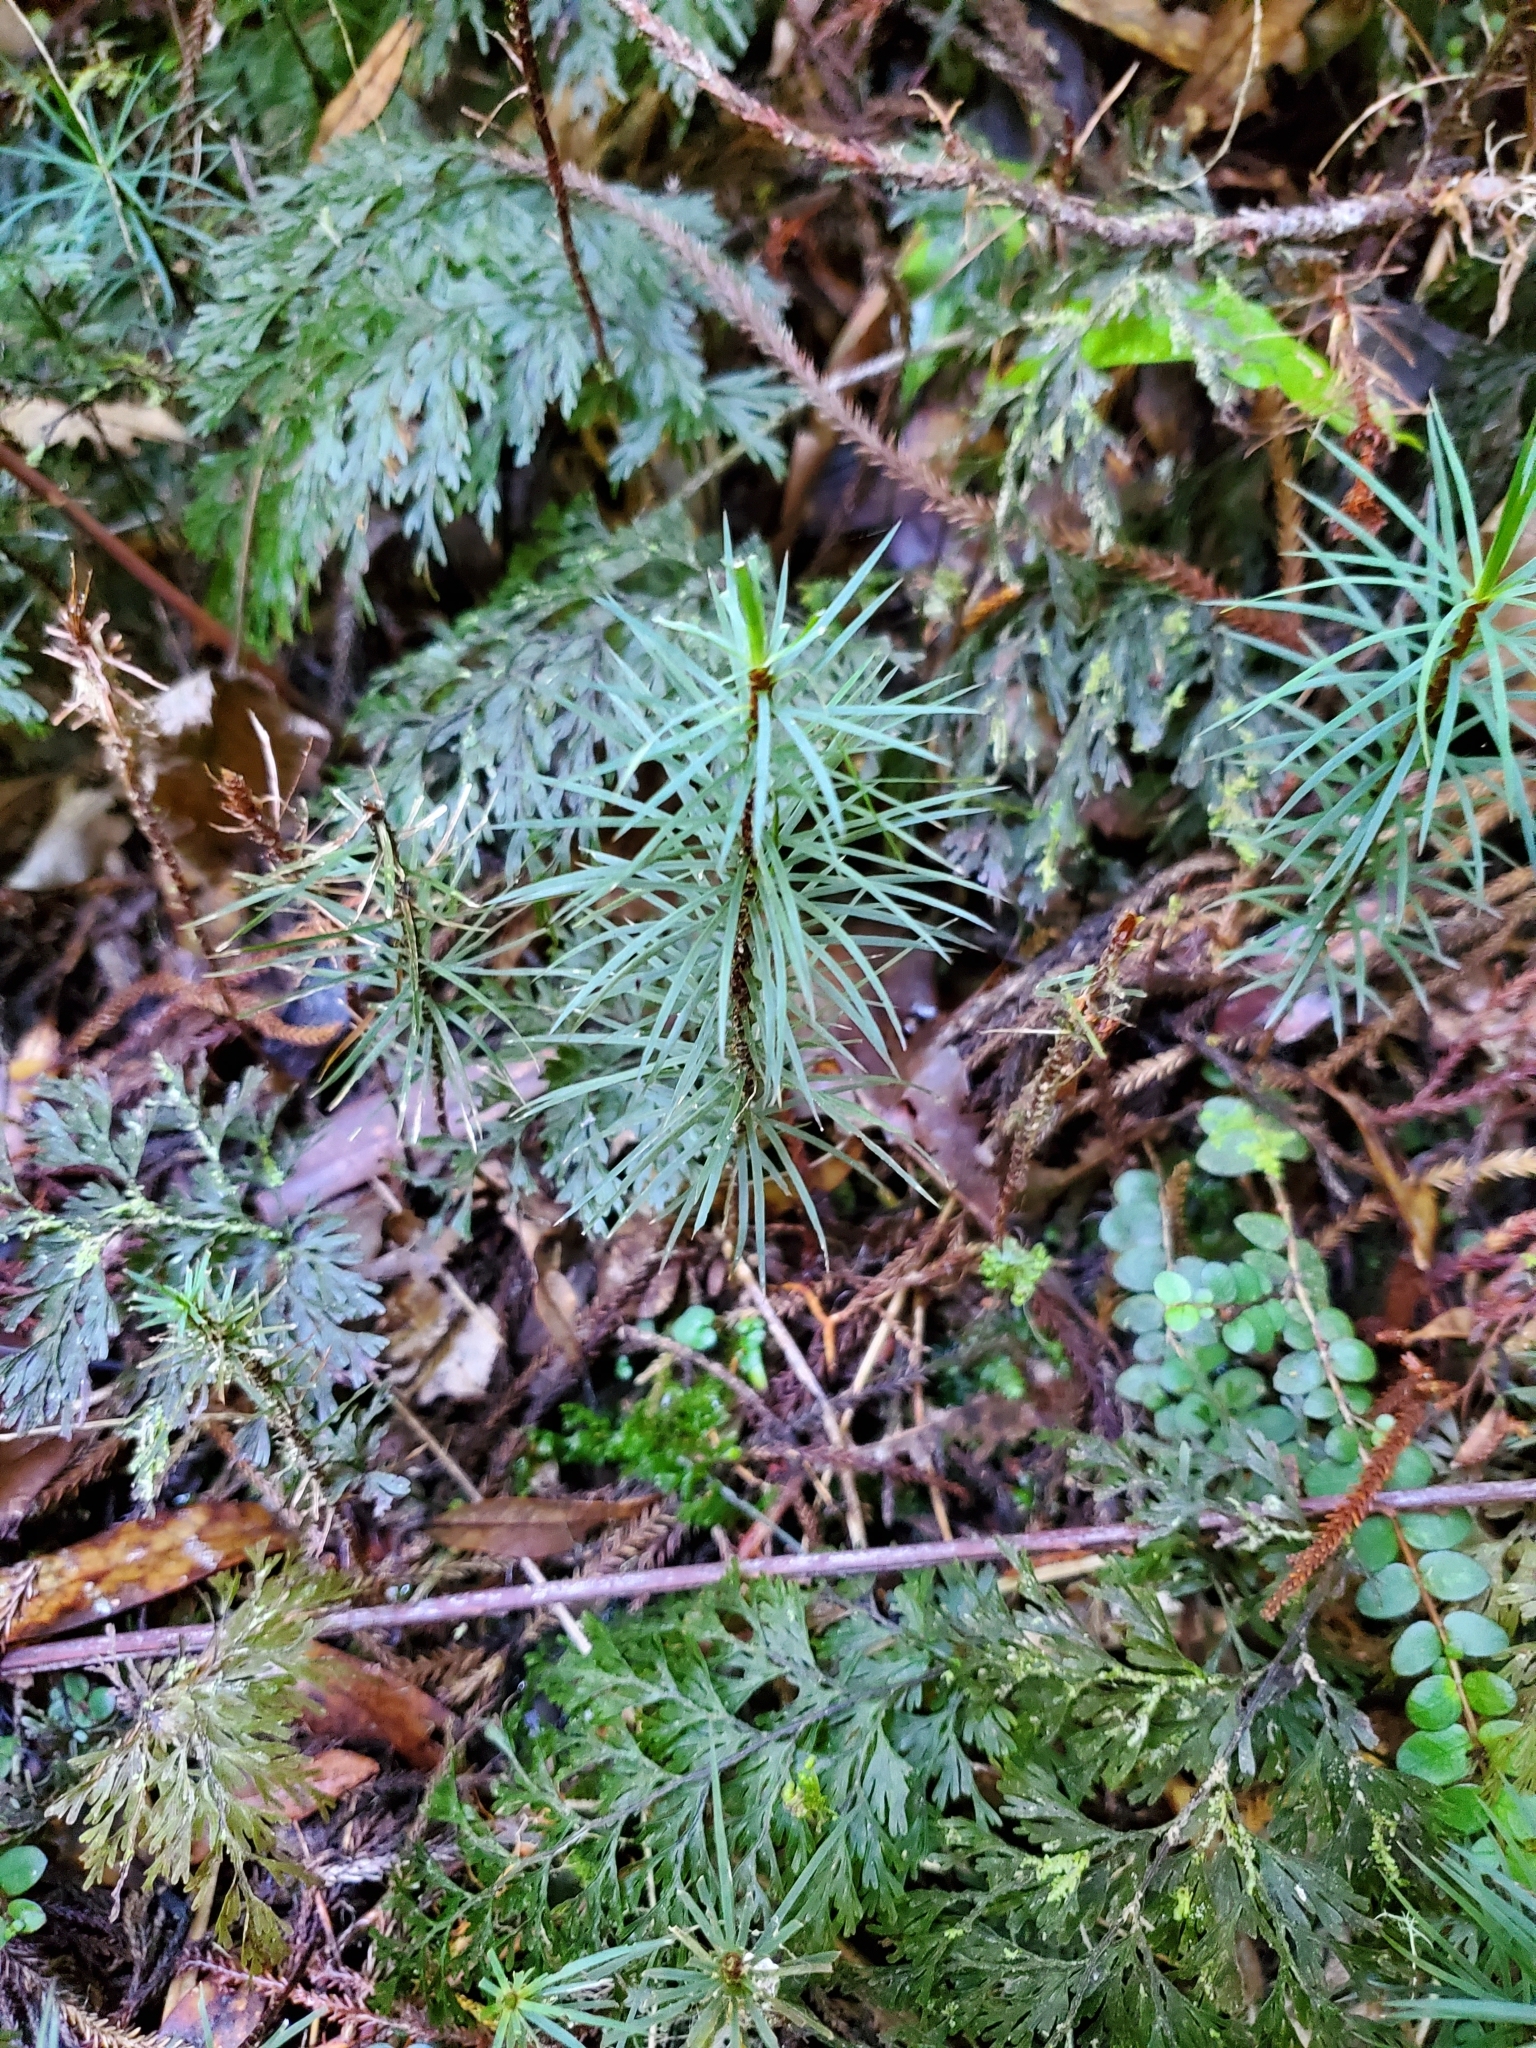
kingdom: Plantae
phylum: Bryophyta
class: Polytrichopsida
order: Polytrichales
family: Polytrichaceae
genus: Dawsonia
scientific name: Dawsonia superba
